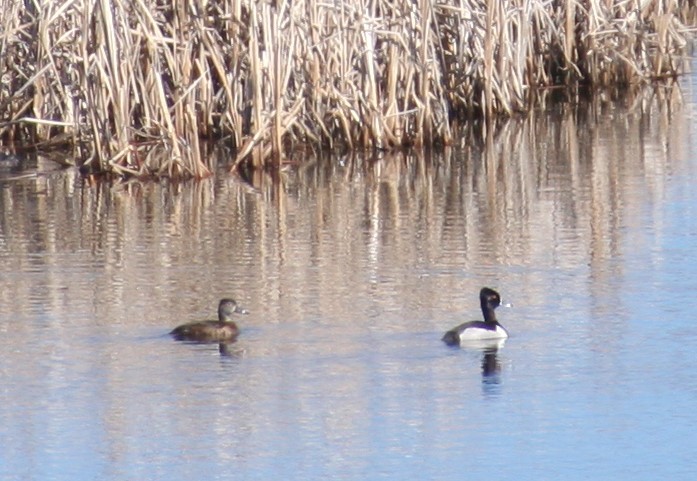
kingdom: Animalia
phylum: Chordata
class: Aves
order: Anseriformes
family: Anatidae
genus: Aythya
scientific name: Aythya collaris
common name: Ring-necked duck
